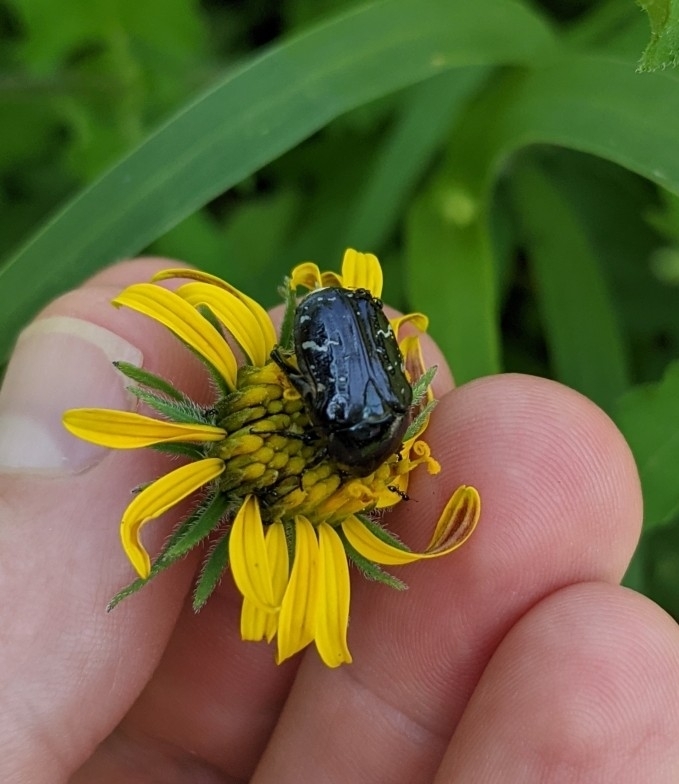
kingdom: Animalia
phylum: Arthropoda
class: Insecta
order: Coleoptera
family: Scarabaeidae
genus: Euphoria
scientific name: Euphoria sepulcralis
